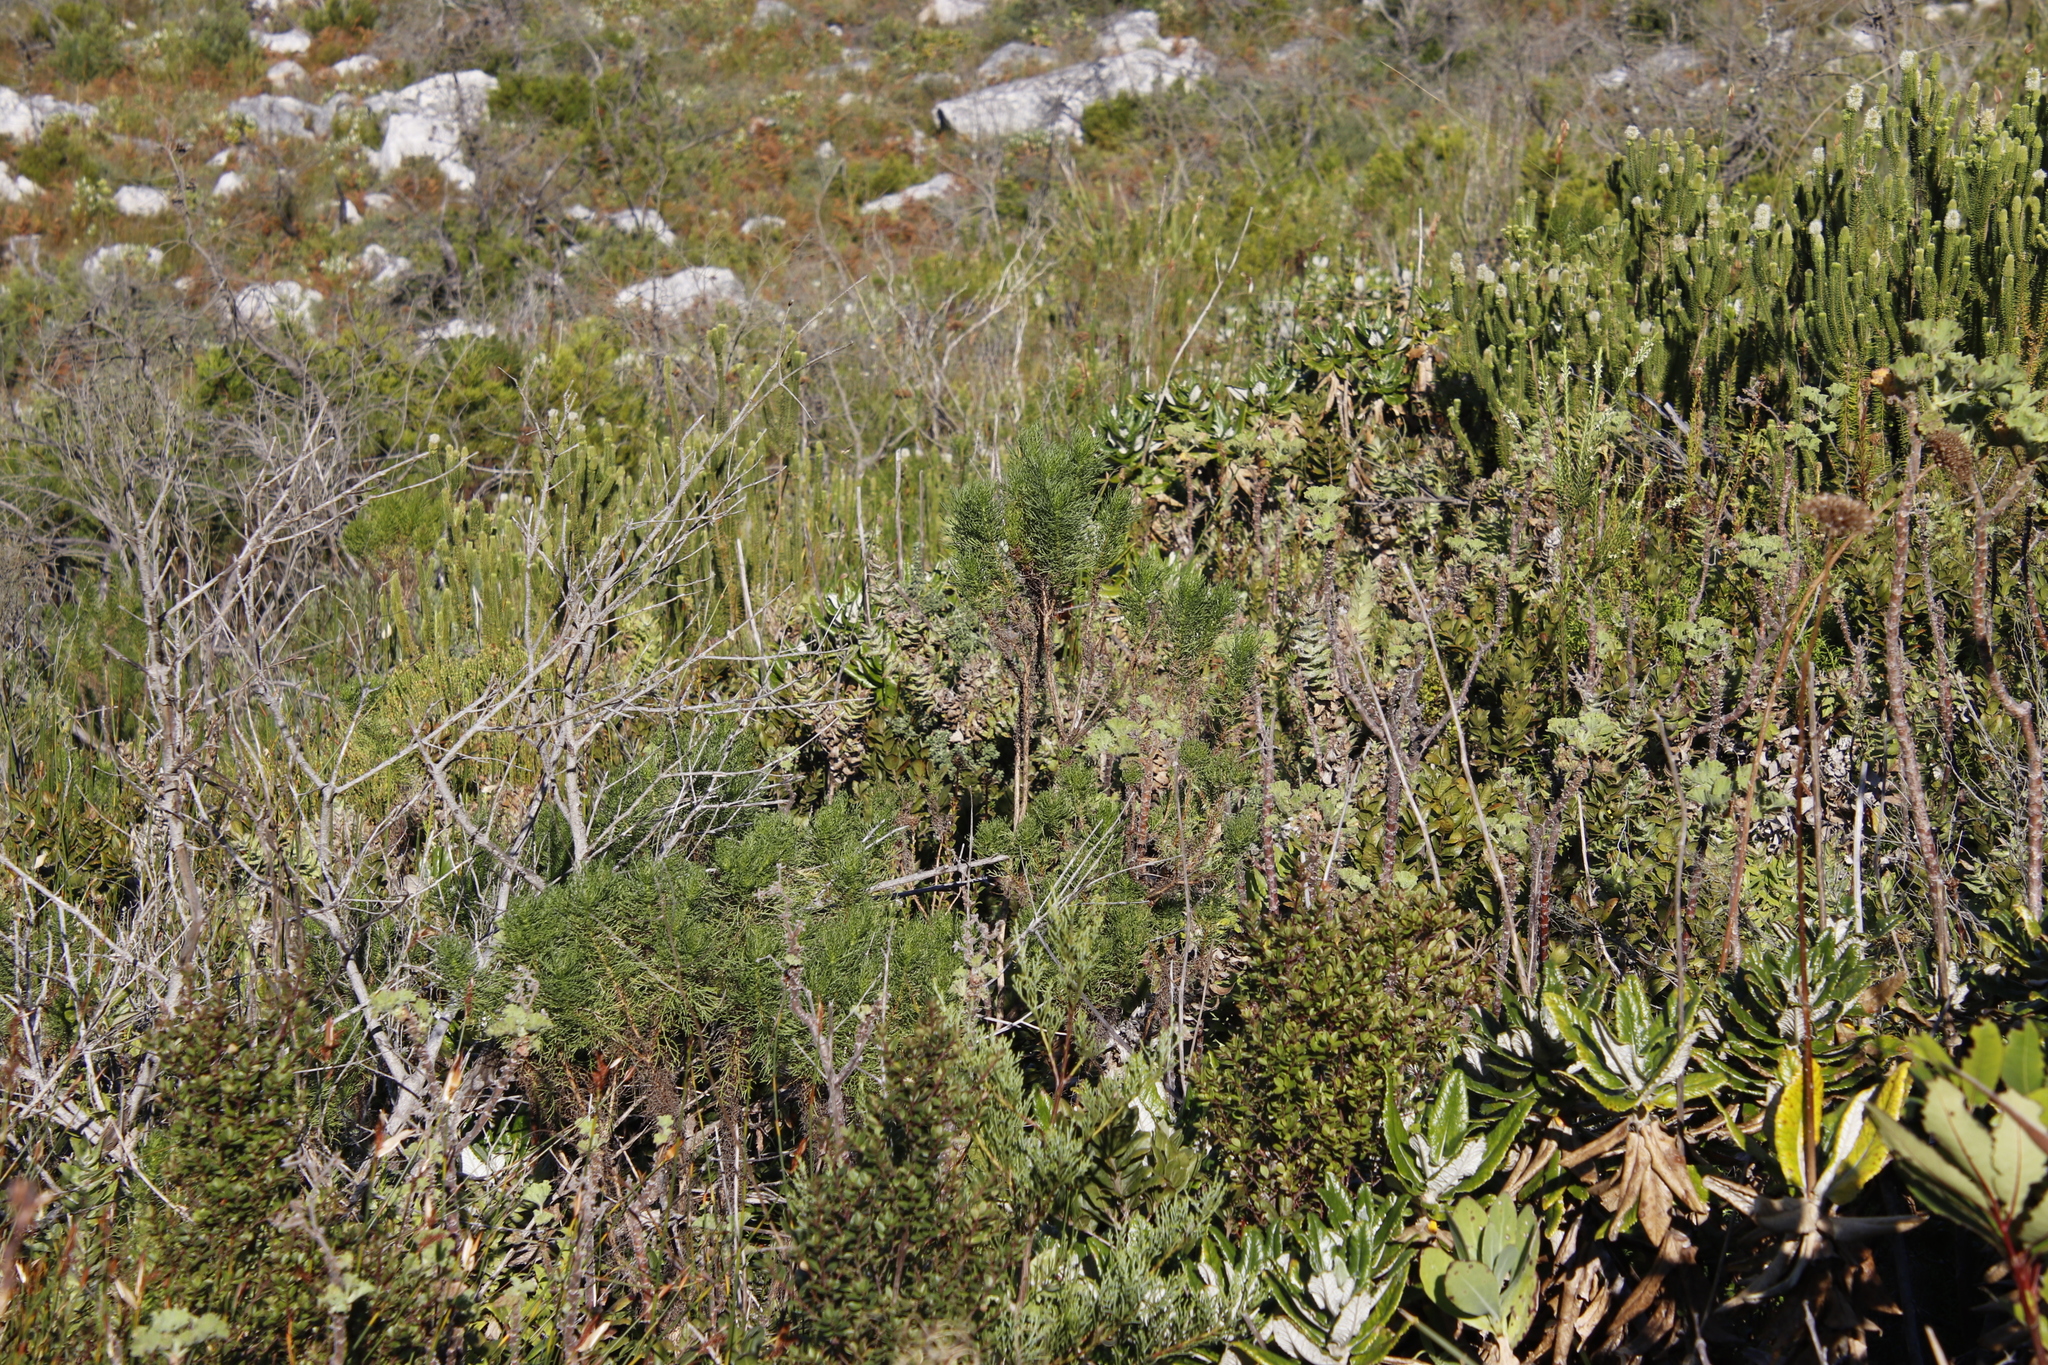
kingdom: Plantae
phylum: Tracheophyta
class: Magnoliopsida
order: Asterales
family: Asteraceae
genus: Osmitopsis
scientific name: Osmitopsis asteriscoides
